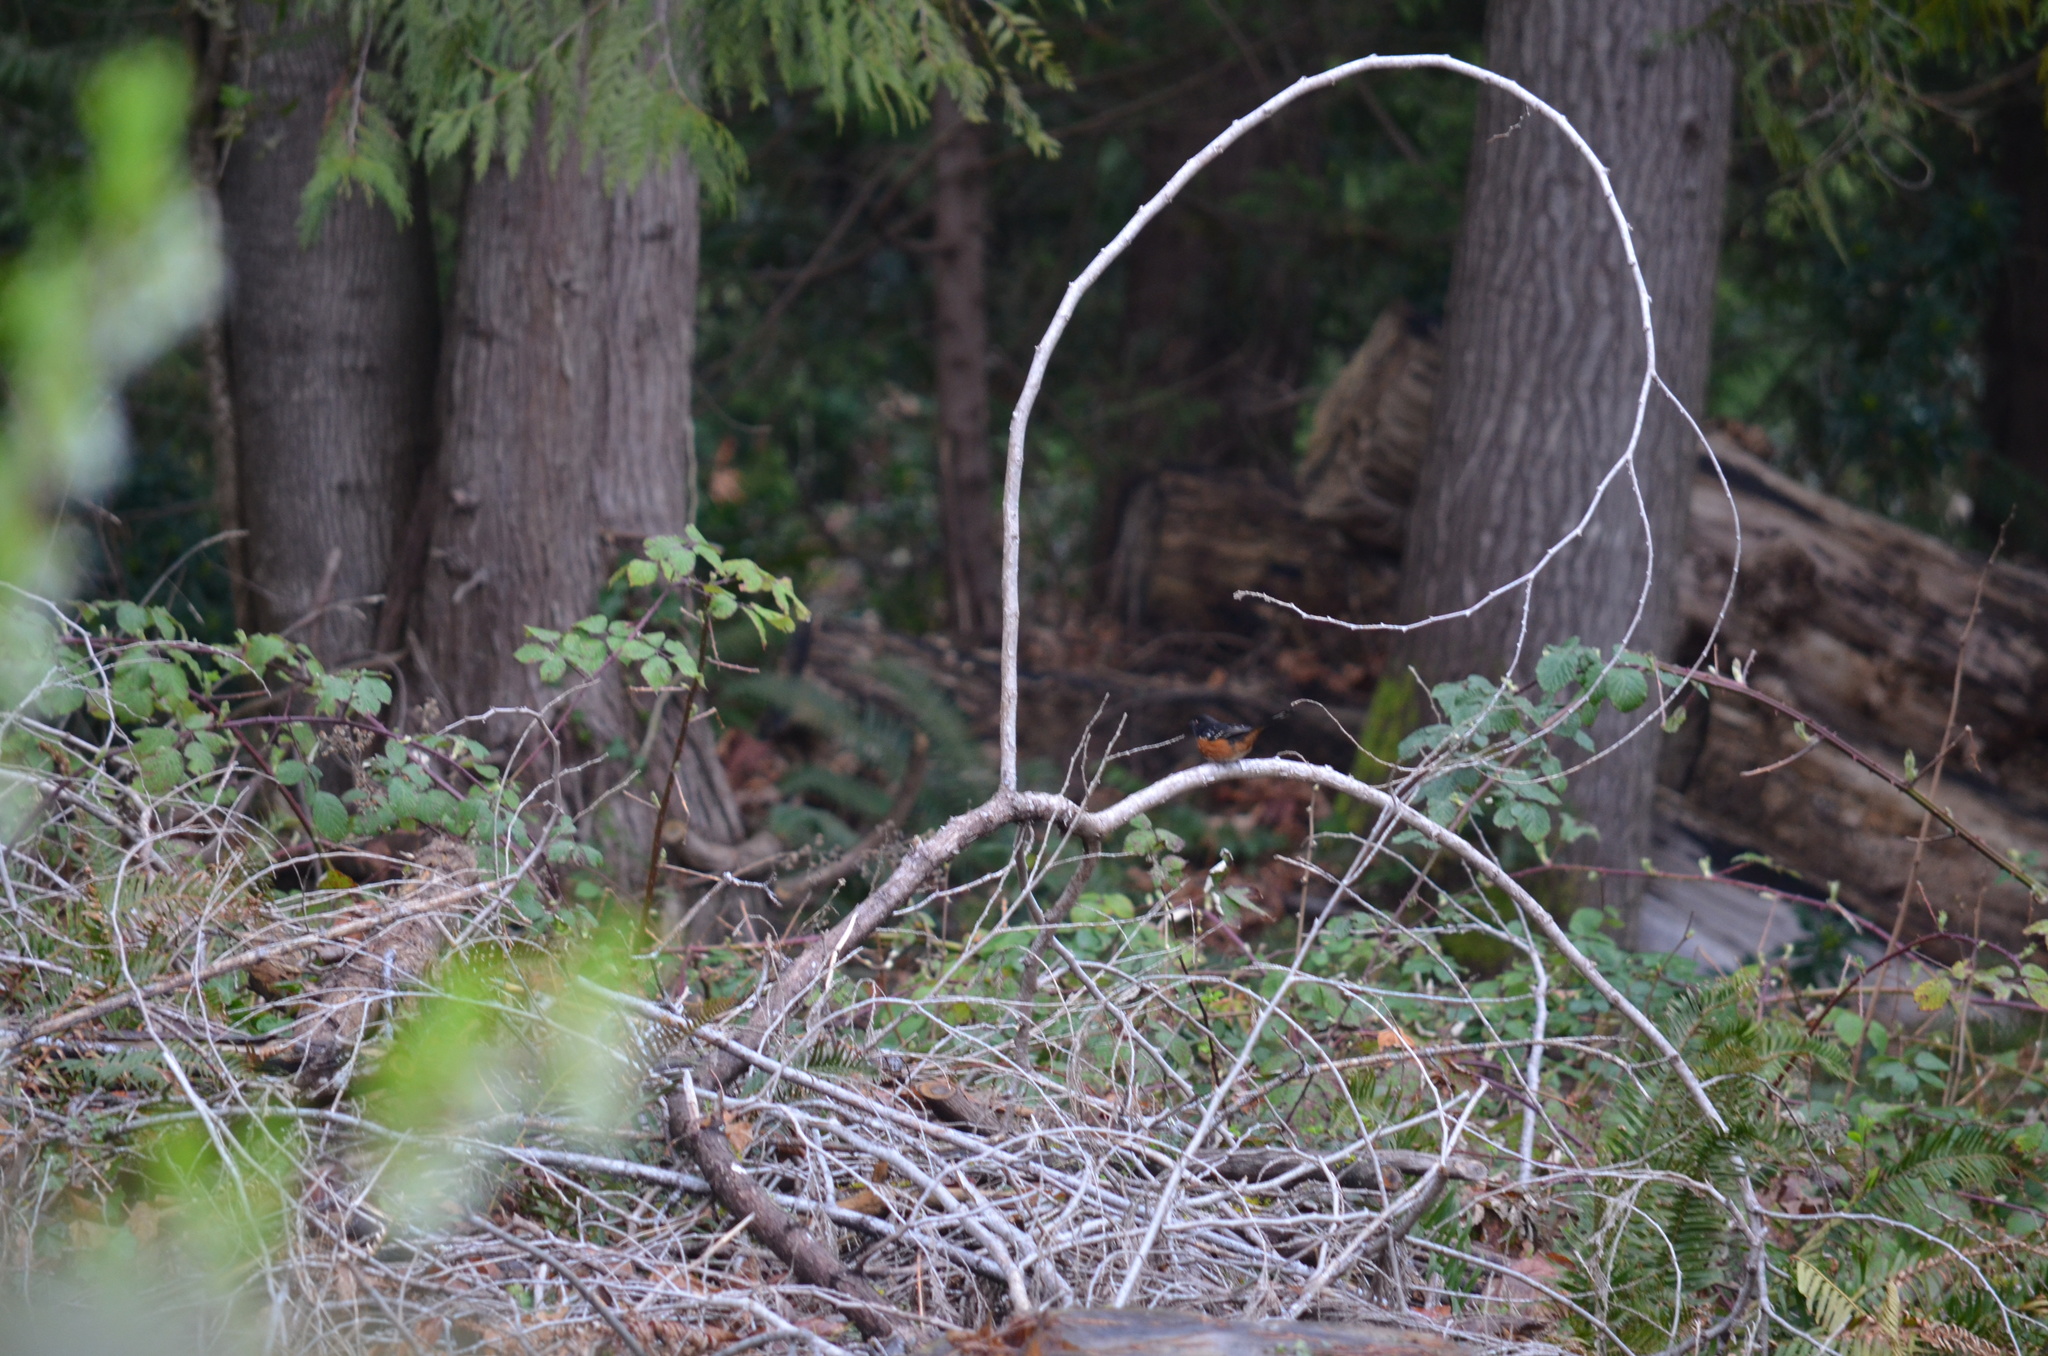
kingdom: Animalia
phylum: Chordata
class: Aves
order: Passeriformes
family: Passerellidae
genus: Pipilo
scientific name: Pipilo maculatus
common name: Spotted towhee
